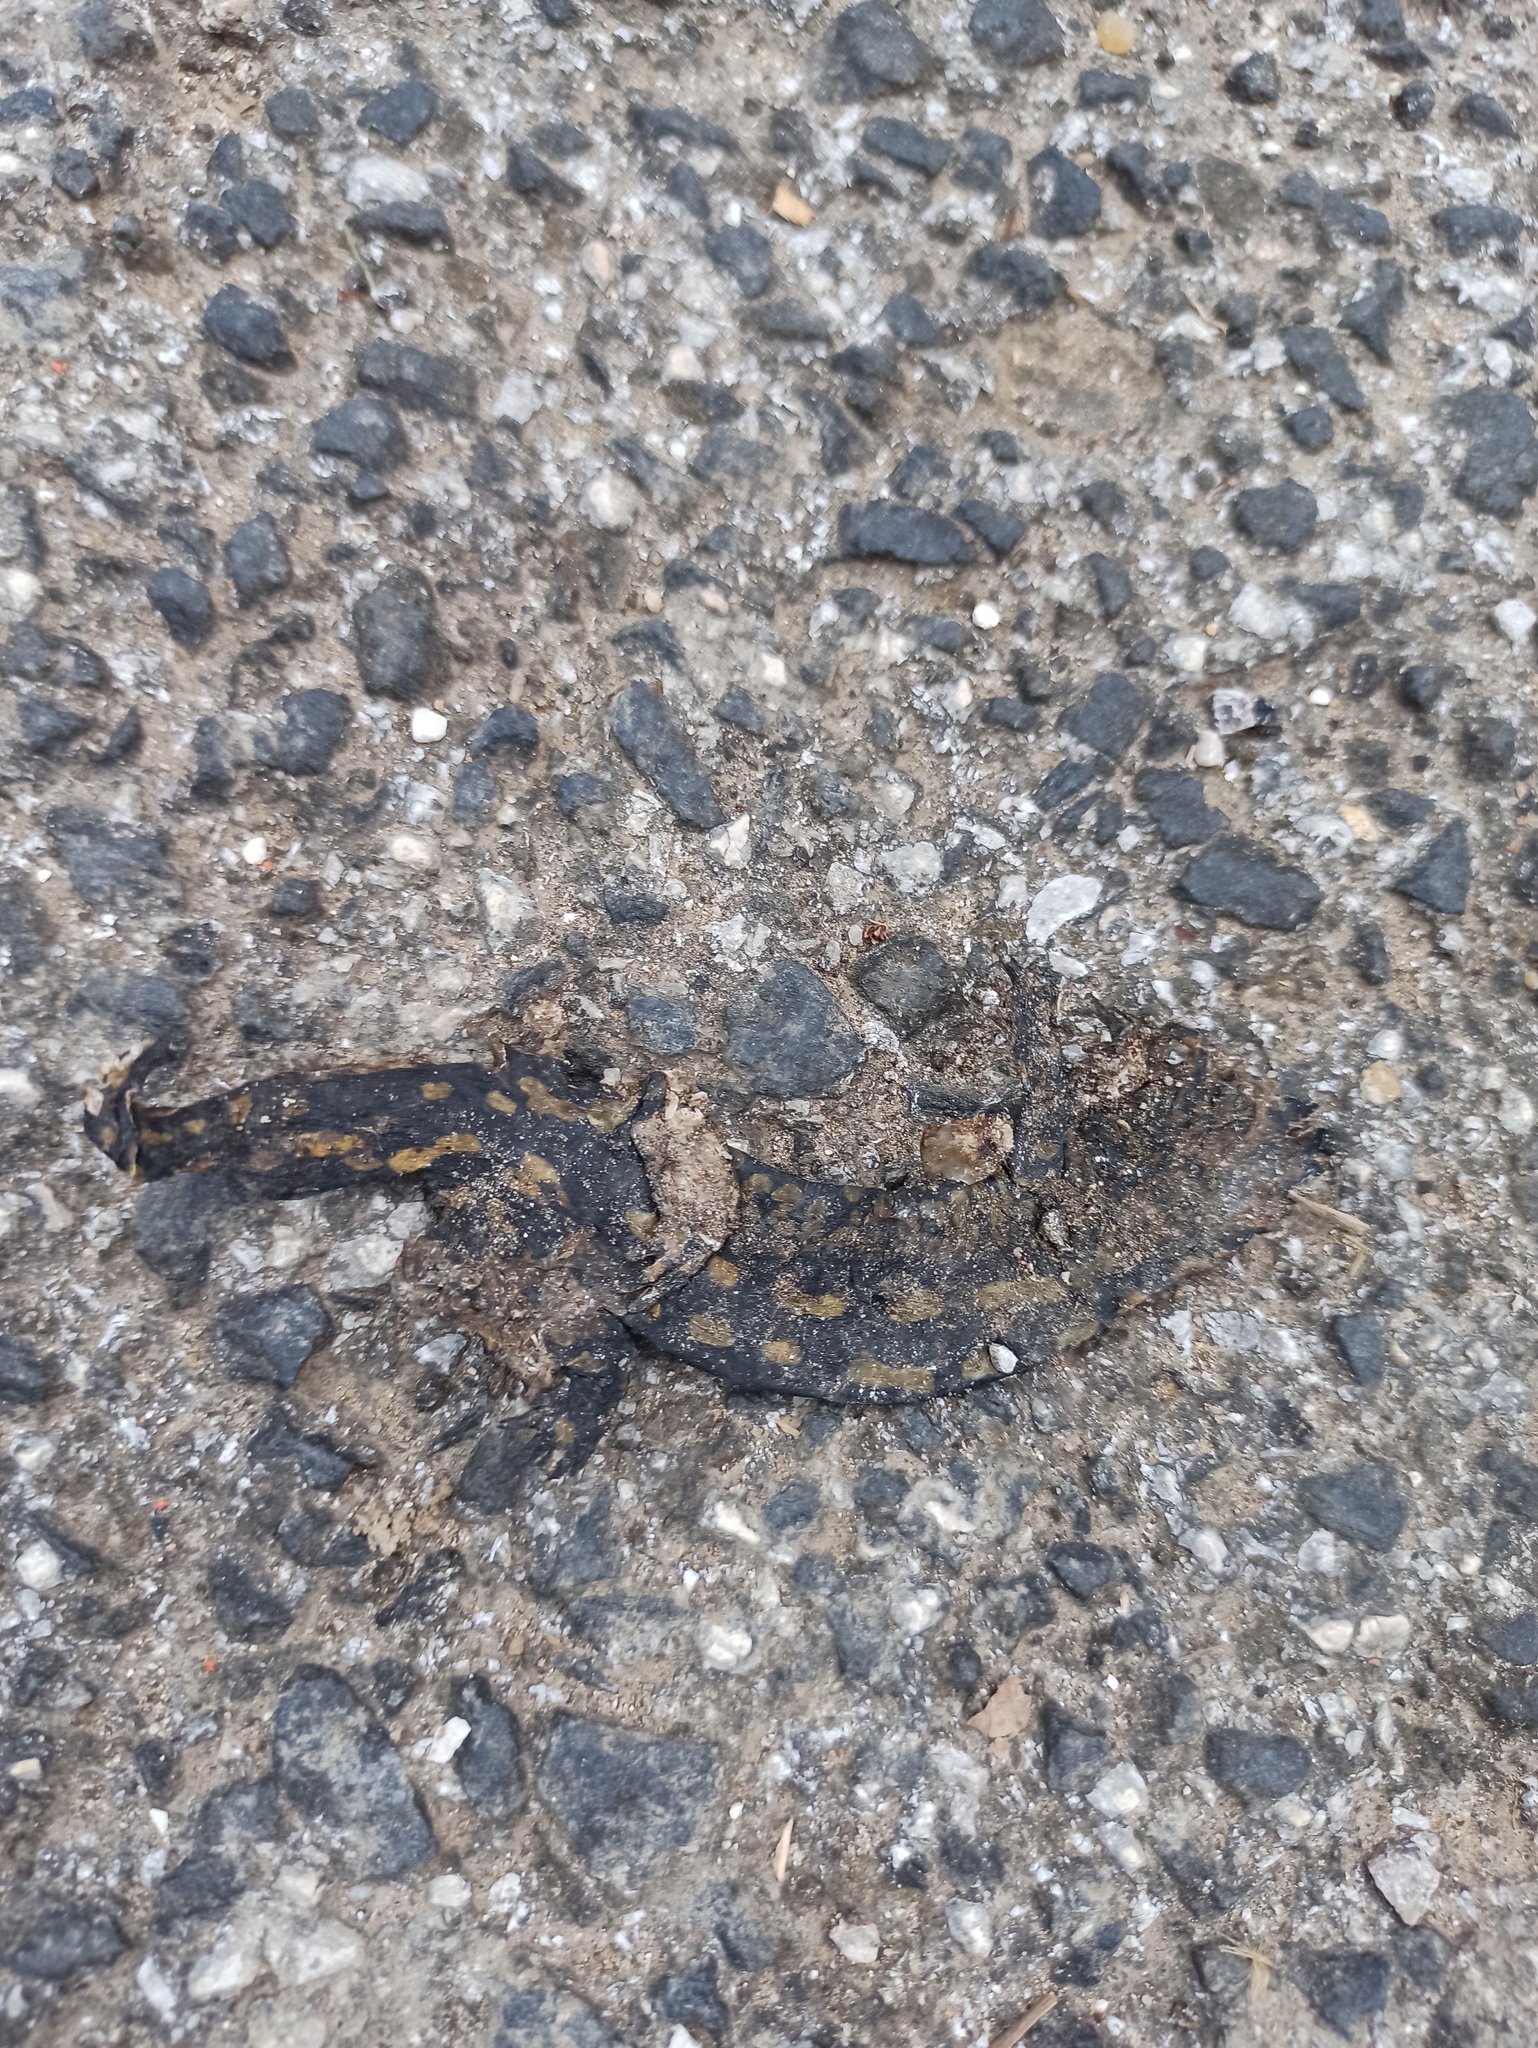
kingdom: Animalia
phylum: Chordata
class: Amphibia
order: Caudata
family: Salamandridae
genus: Salamandra
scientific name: Salamandra salamandra
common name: Fire salamander
